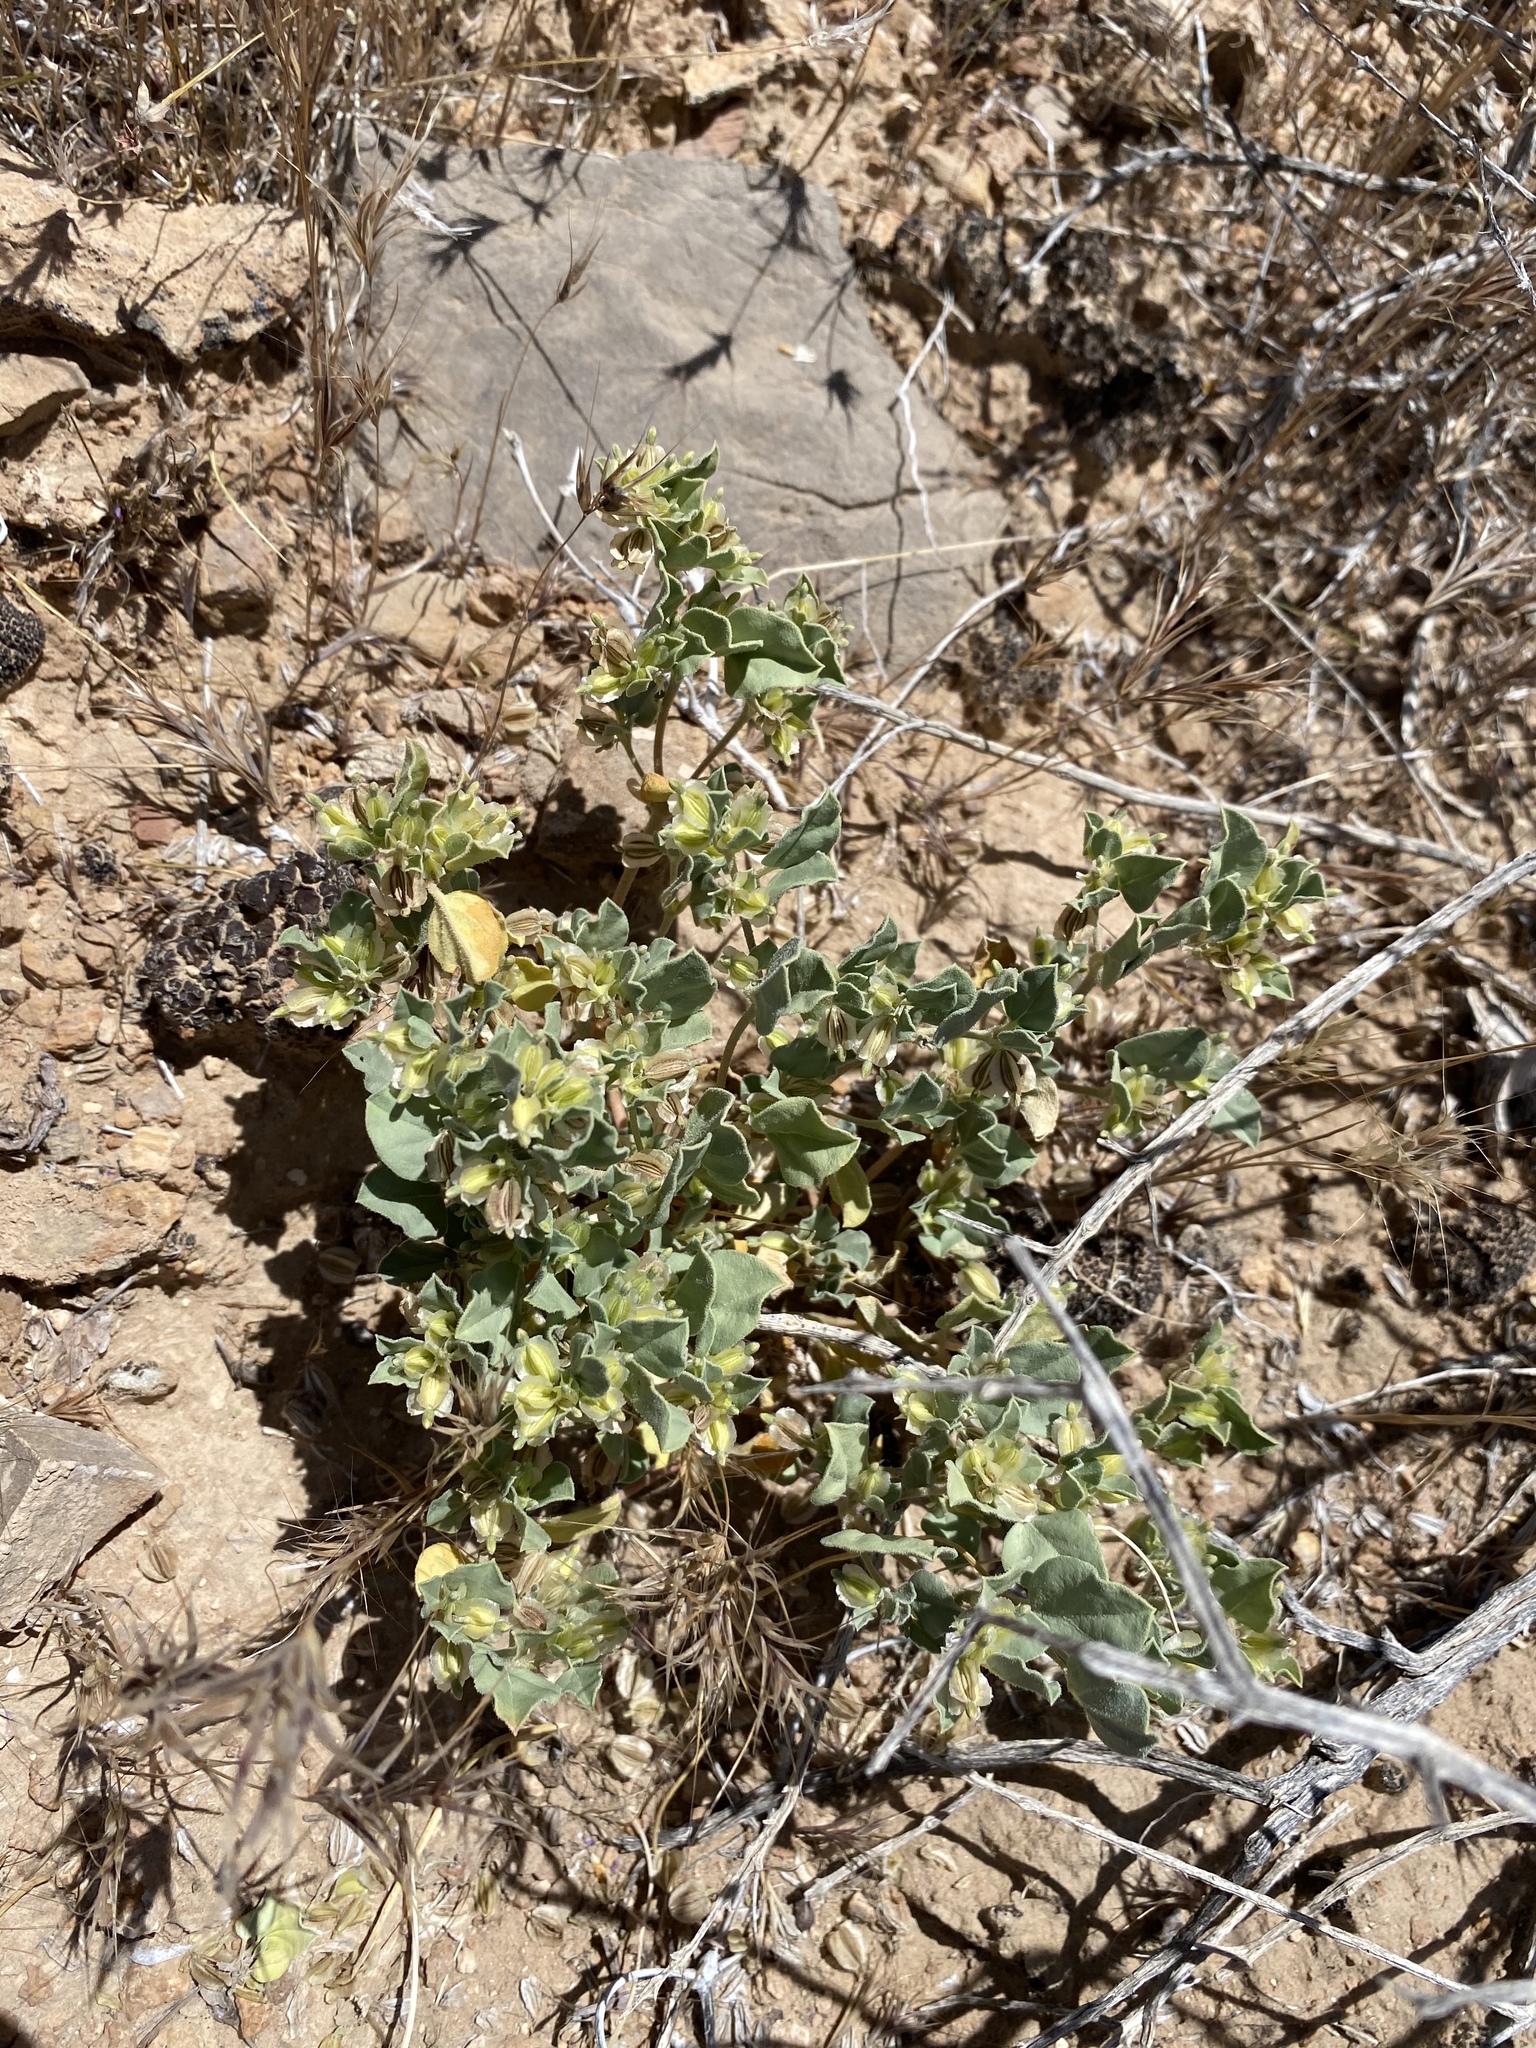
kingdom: Plantae
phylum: Tracheophyta
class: Magnoliopsida
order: Caryophyllales
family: Nyctaginaceae
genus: Acleisanthes
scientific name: Acleisanthes nevadensis
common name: Desert moonpod
